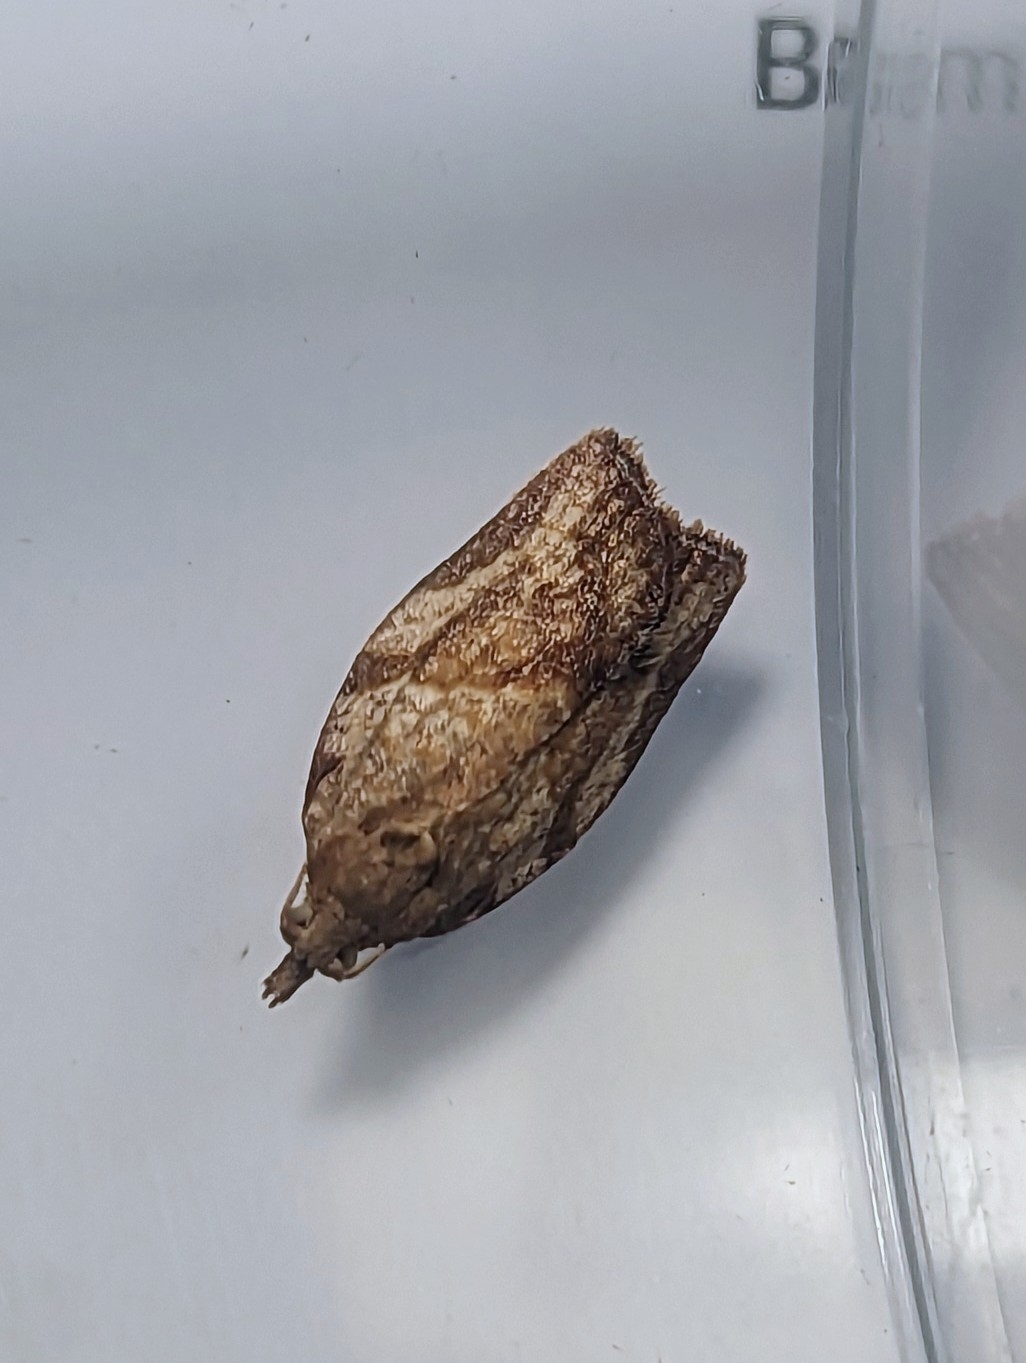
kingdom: Animalia
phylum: Arthropoda
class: Insecta
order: Lepidoptera
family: Tortricidae
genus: Epiphyas
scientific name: Epiphyas postvittana
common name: Light brown apple moth
